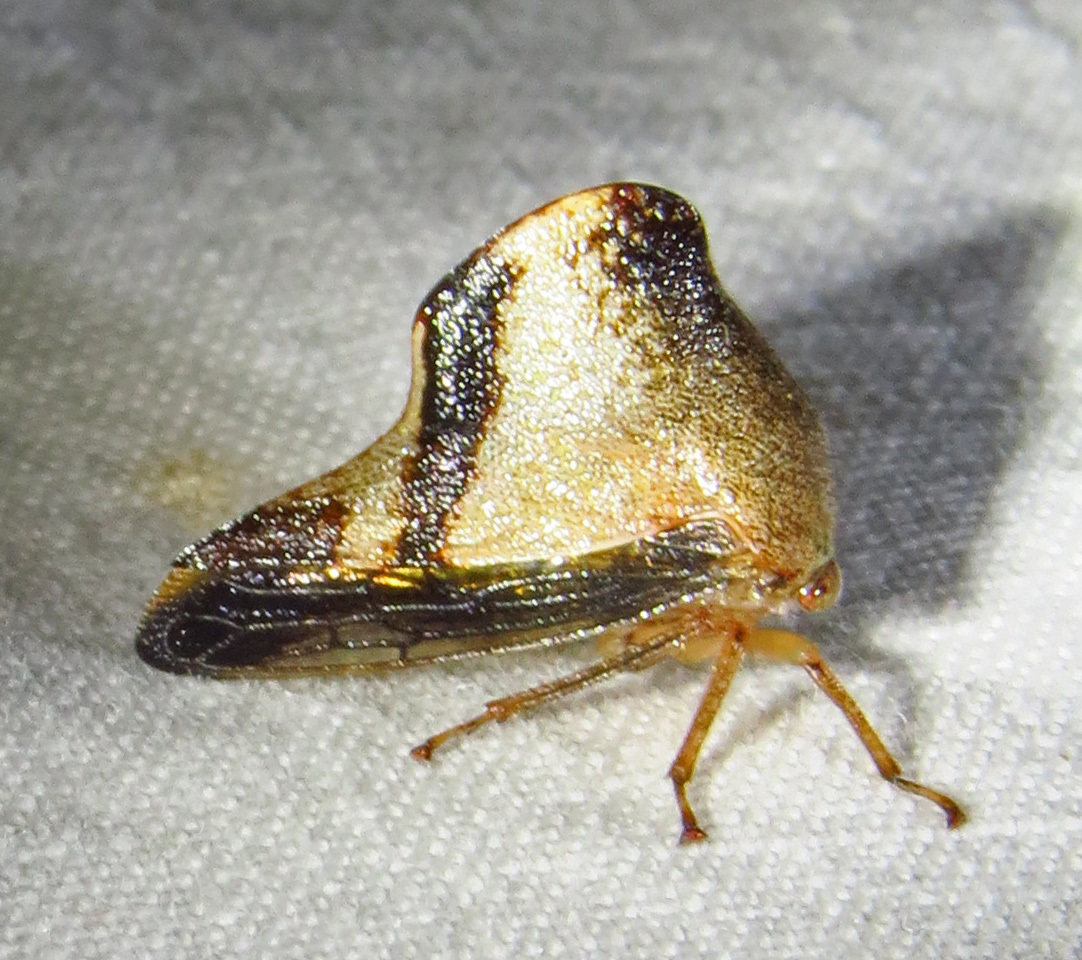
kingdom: Animalia
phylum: Arthropoda
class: Insecta
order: Hemiptera
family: Membracidae
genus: Helonica
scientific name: Helonica excelsa
